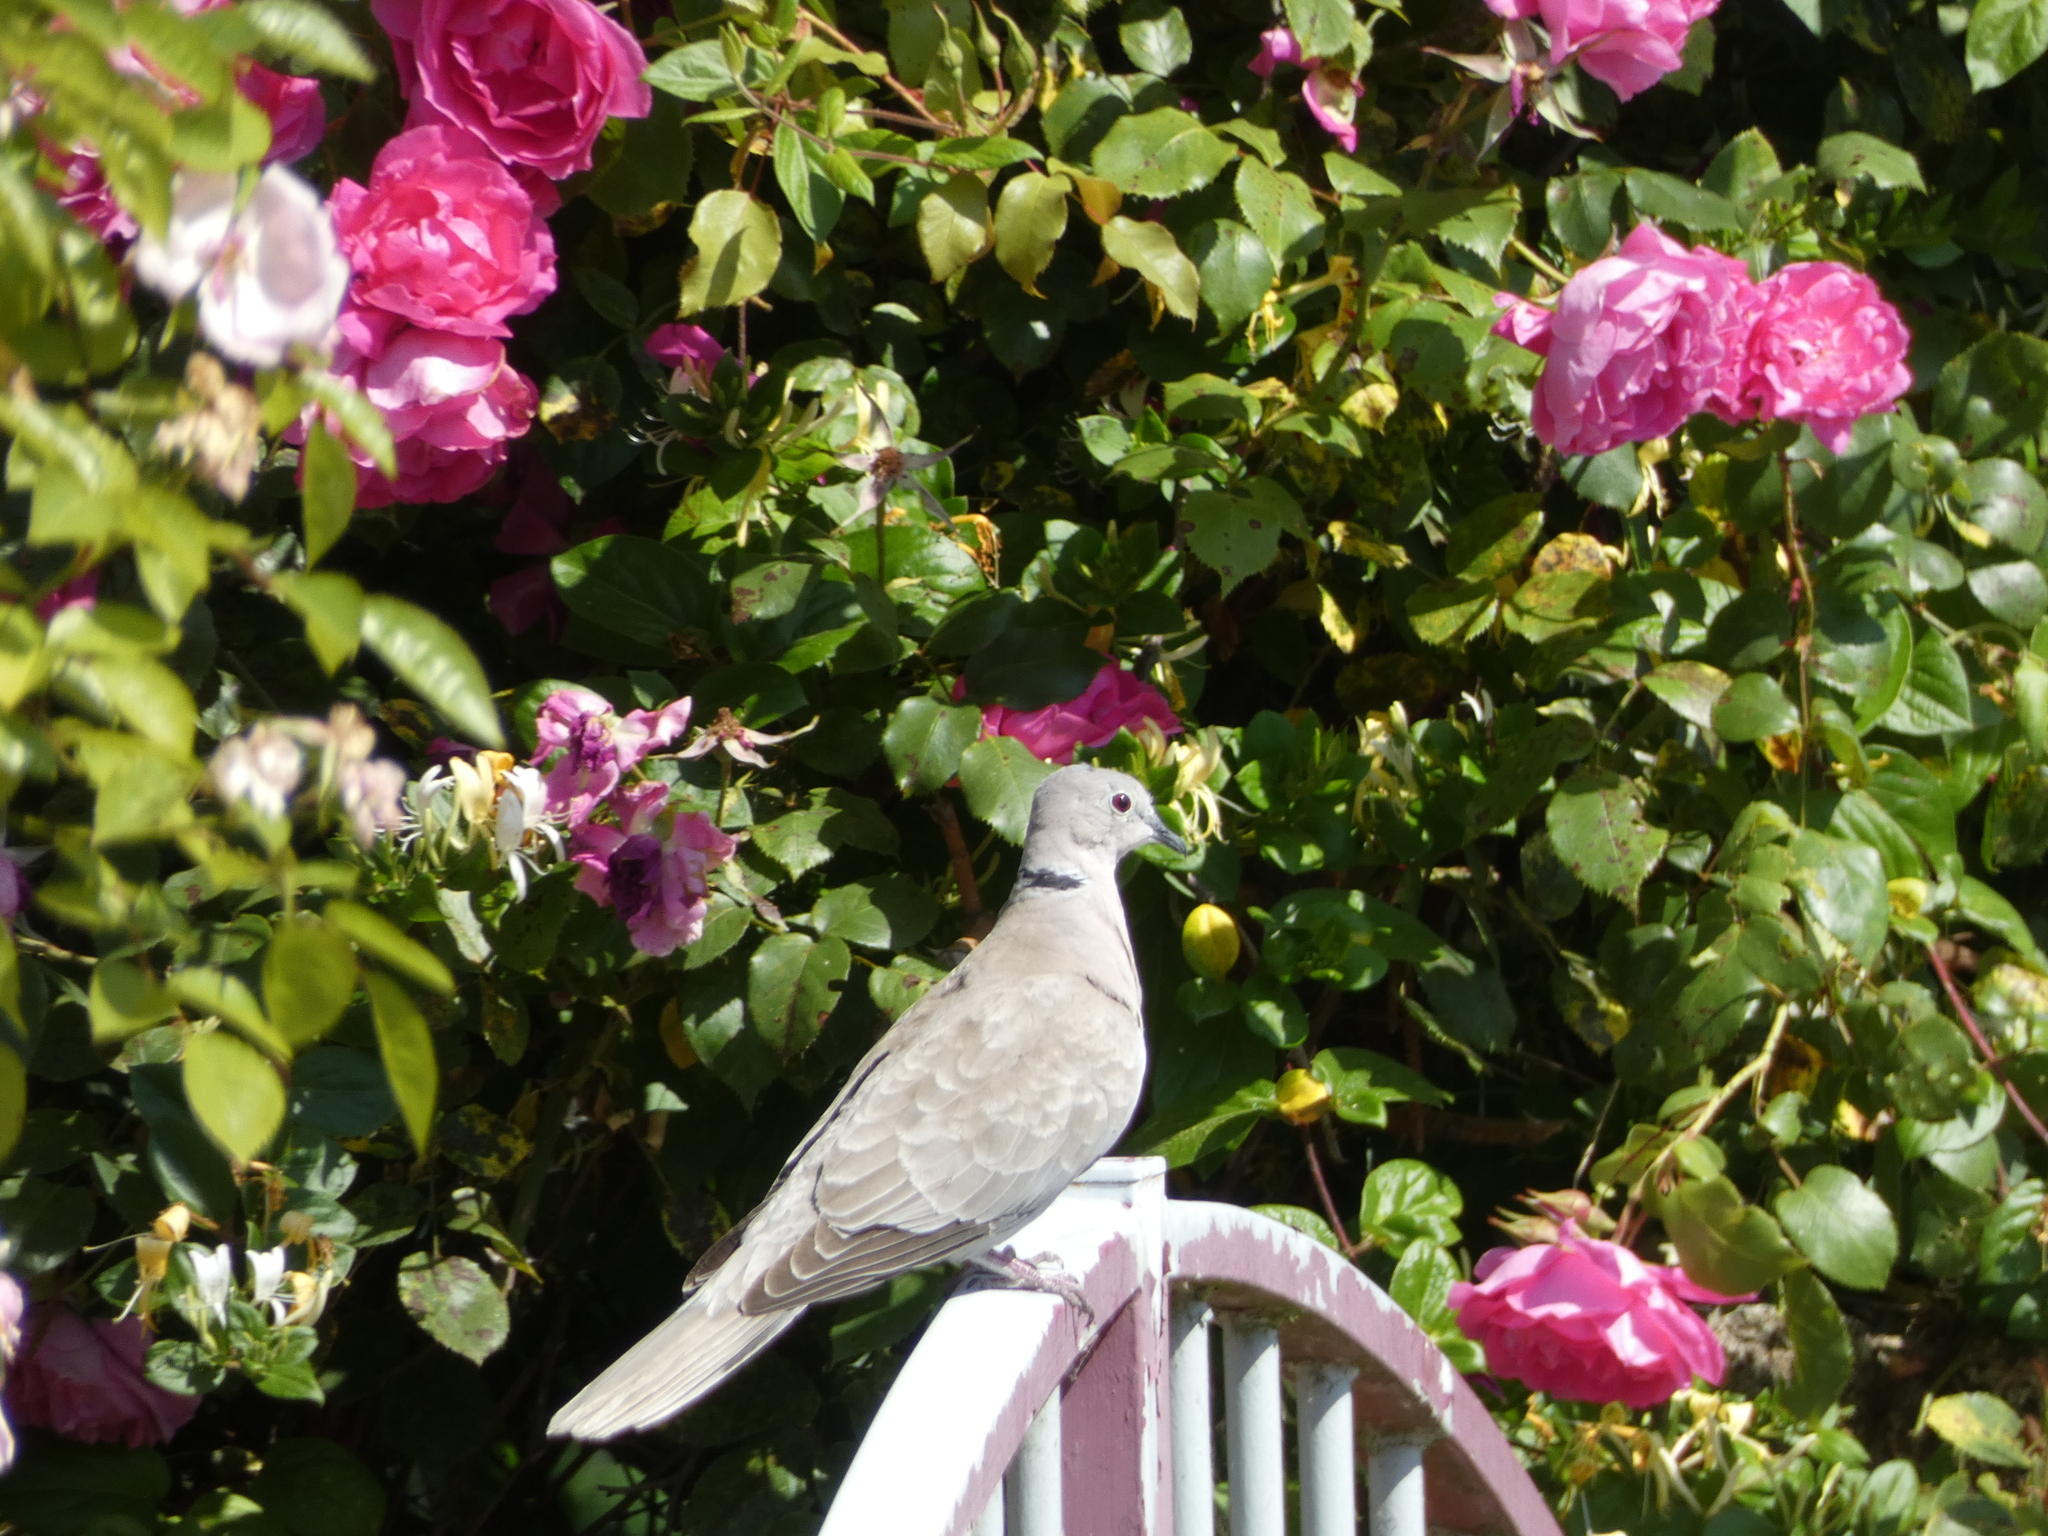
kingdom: Animalia
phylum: Chordata
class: Aves
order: Columbiformes
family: Columbidae
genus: Streptopelia
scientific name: Streptopelia decaocto
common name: Eurasian collared dove
